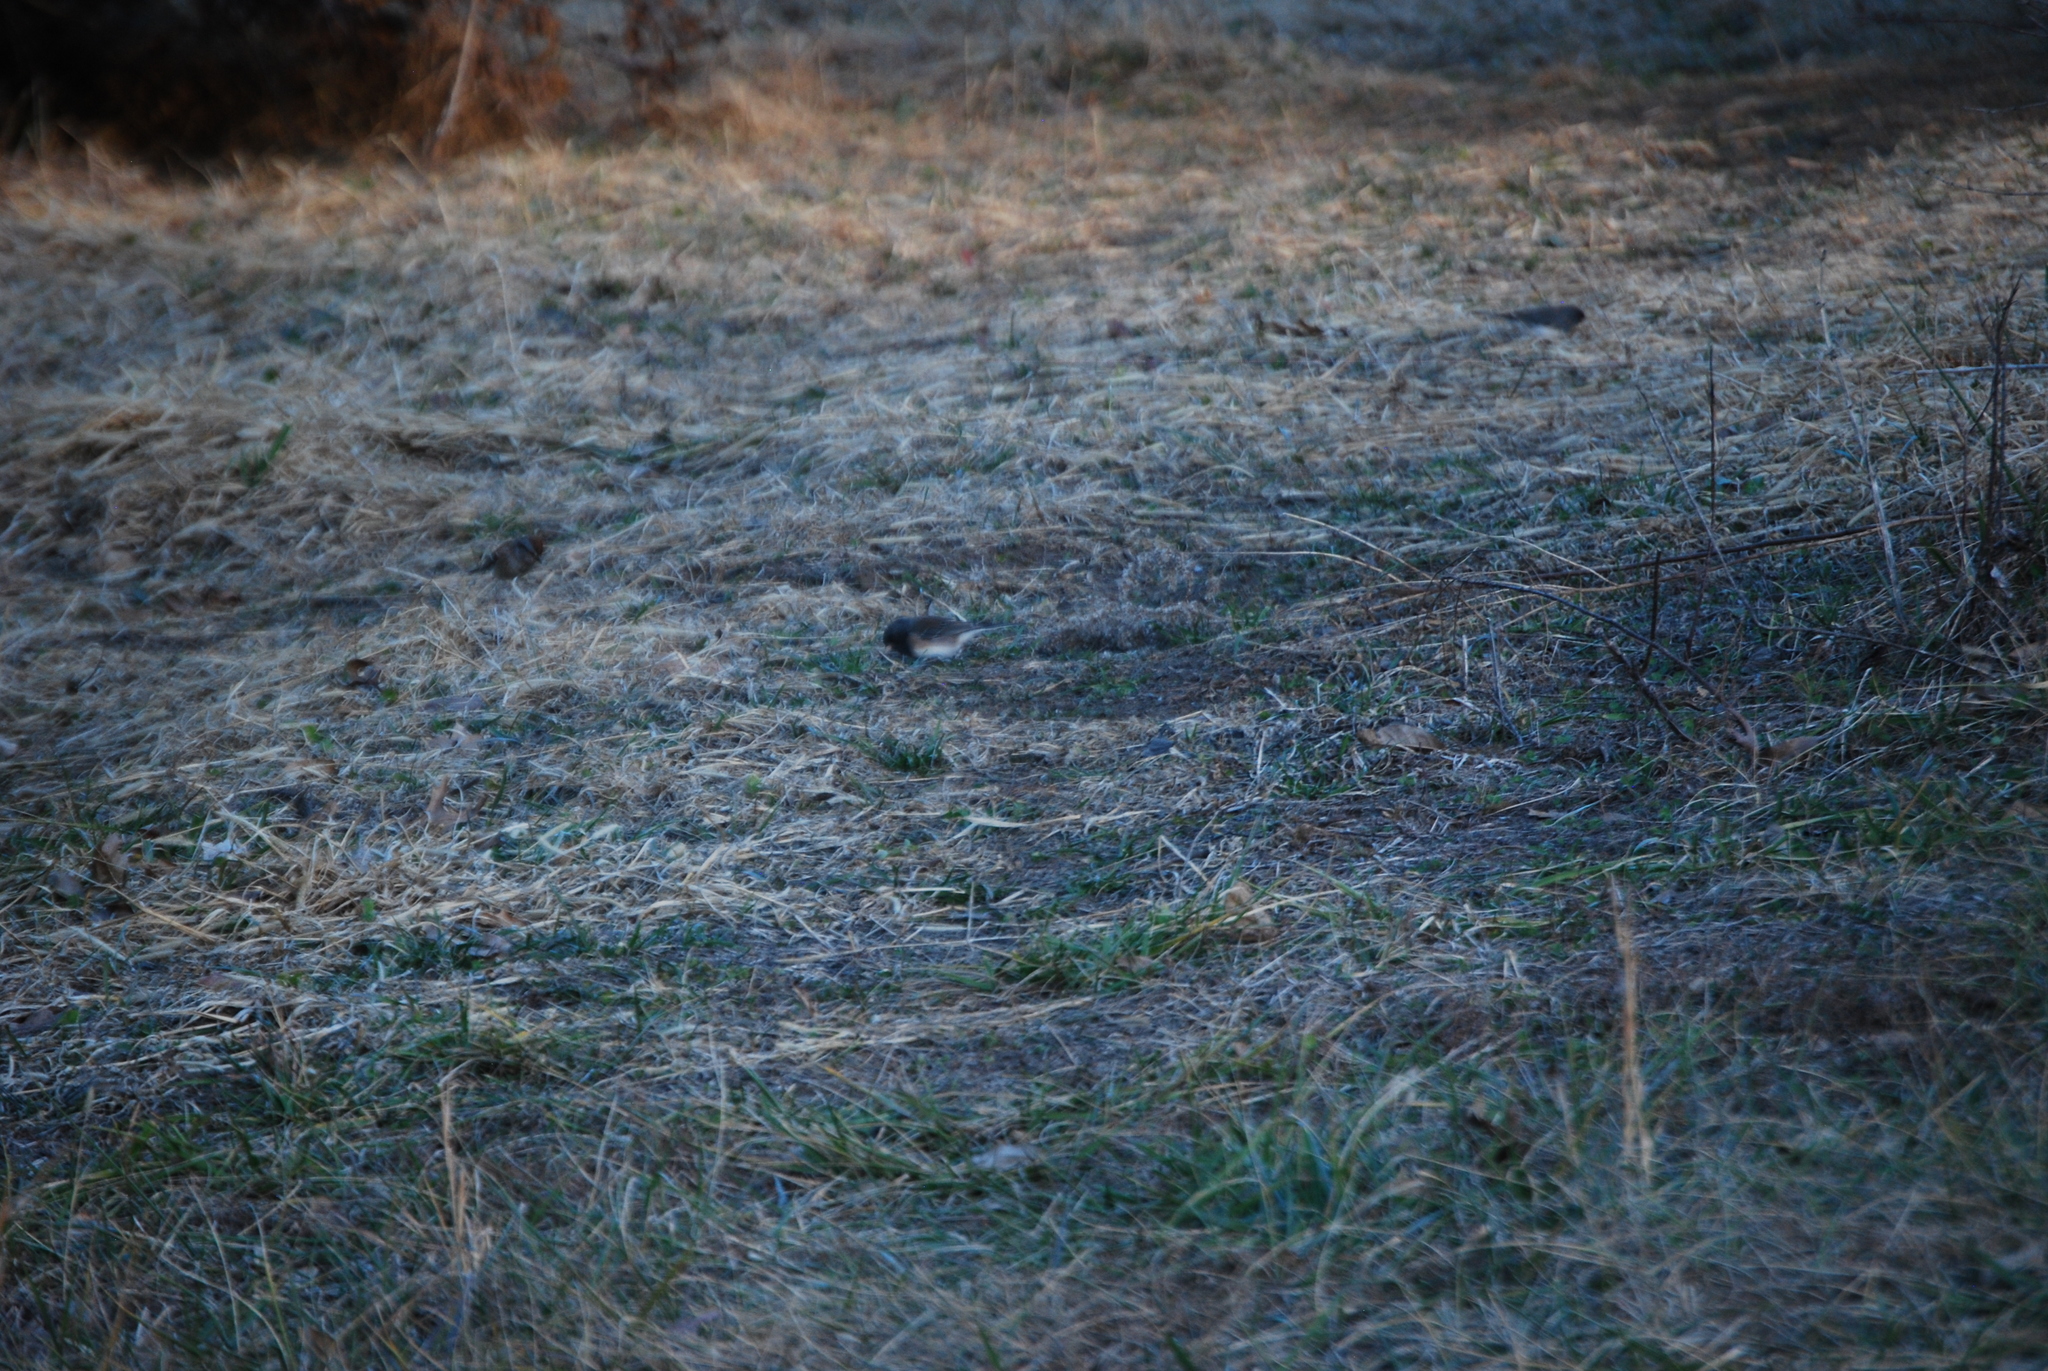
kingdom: Animalia
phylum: Chordata
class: Aves
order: Passeriformes
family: Passerellidae
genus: Junco
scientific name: Junco hyemalis
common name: Dark-eyed junco
